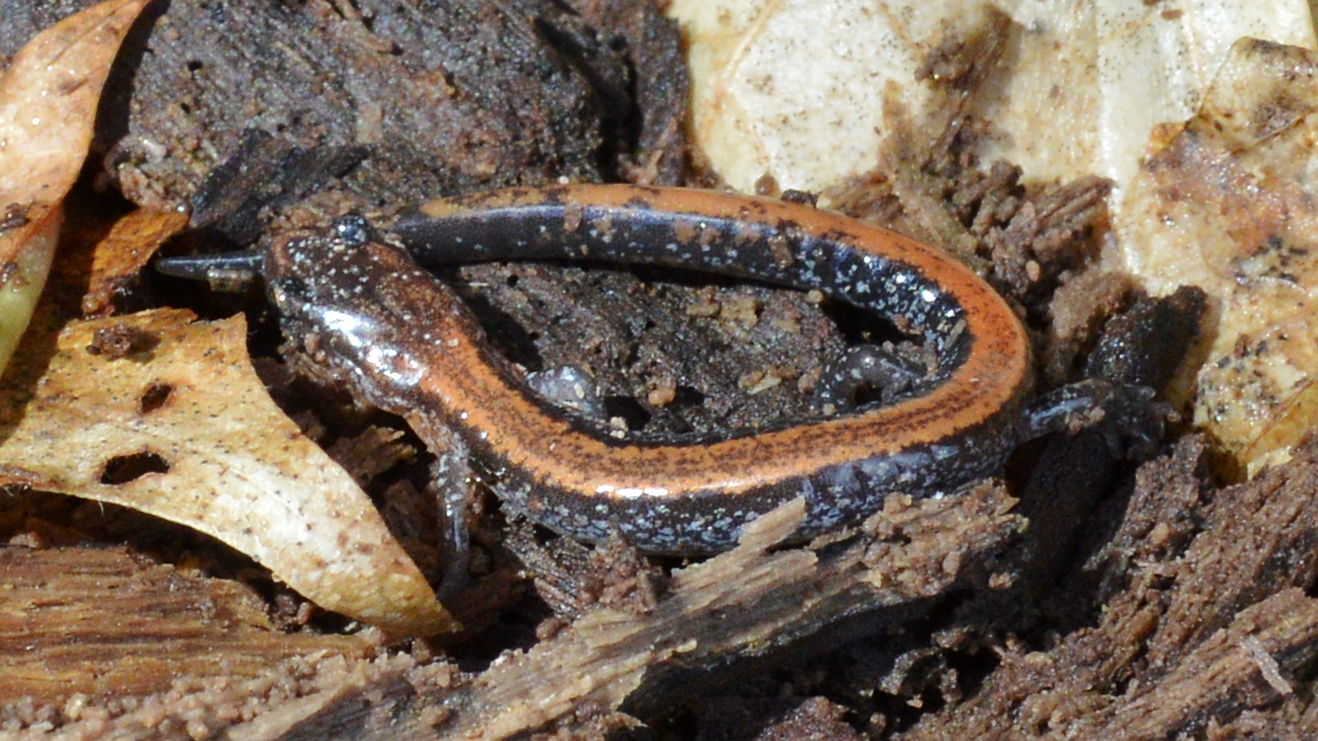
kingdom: Animalia
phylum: Chordata
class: Amphibia
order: Caudata
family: Plethodontidae
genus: Plethodon
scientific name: Plethodon cinereus
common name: Redback salamander
